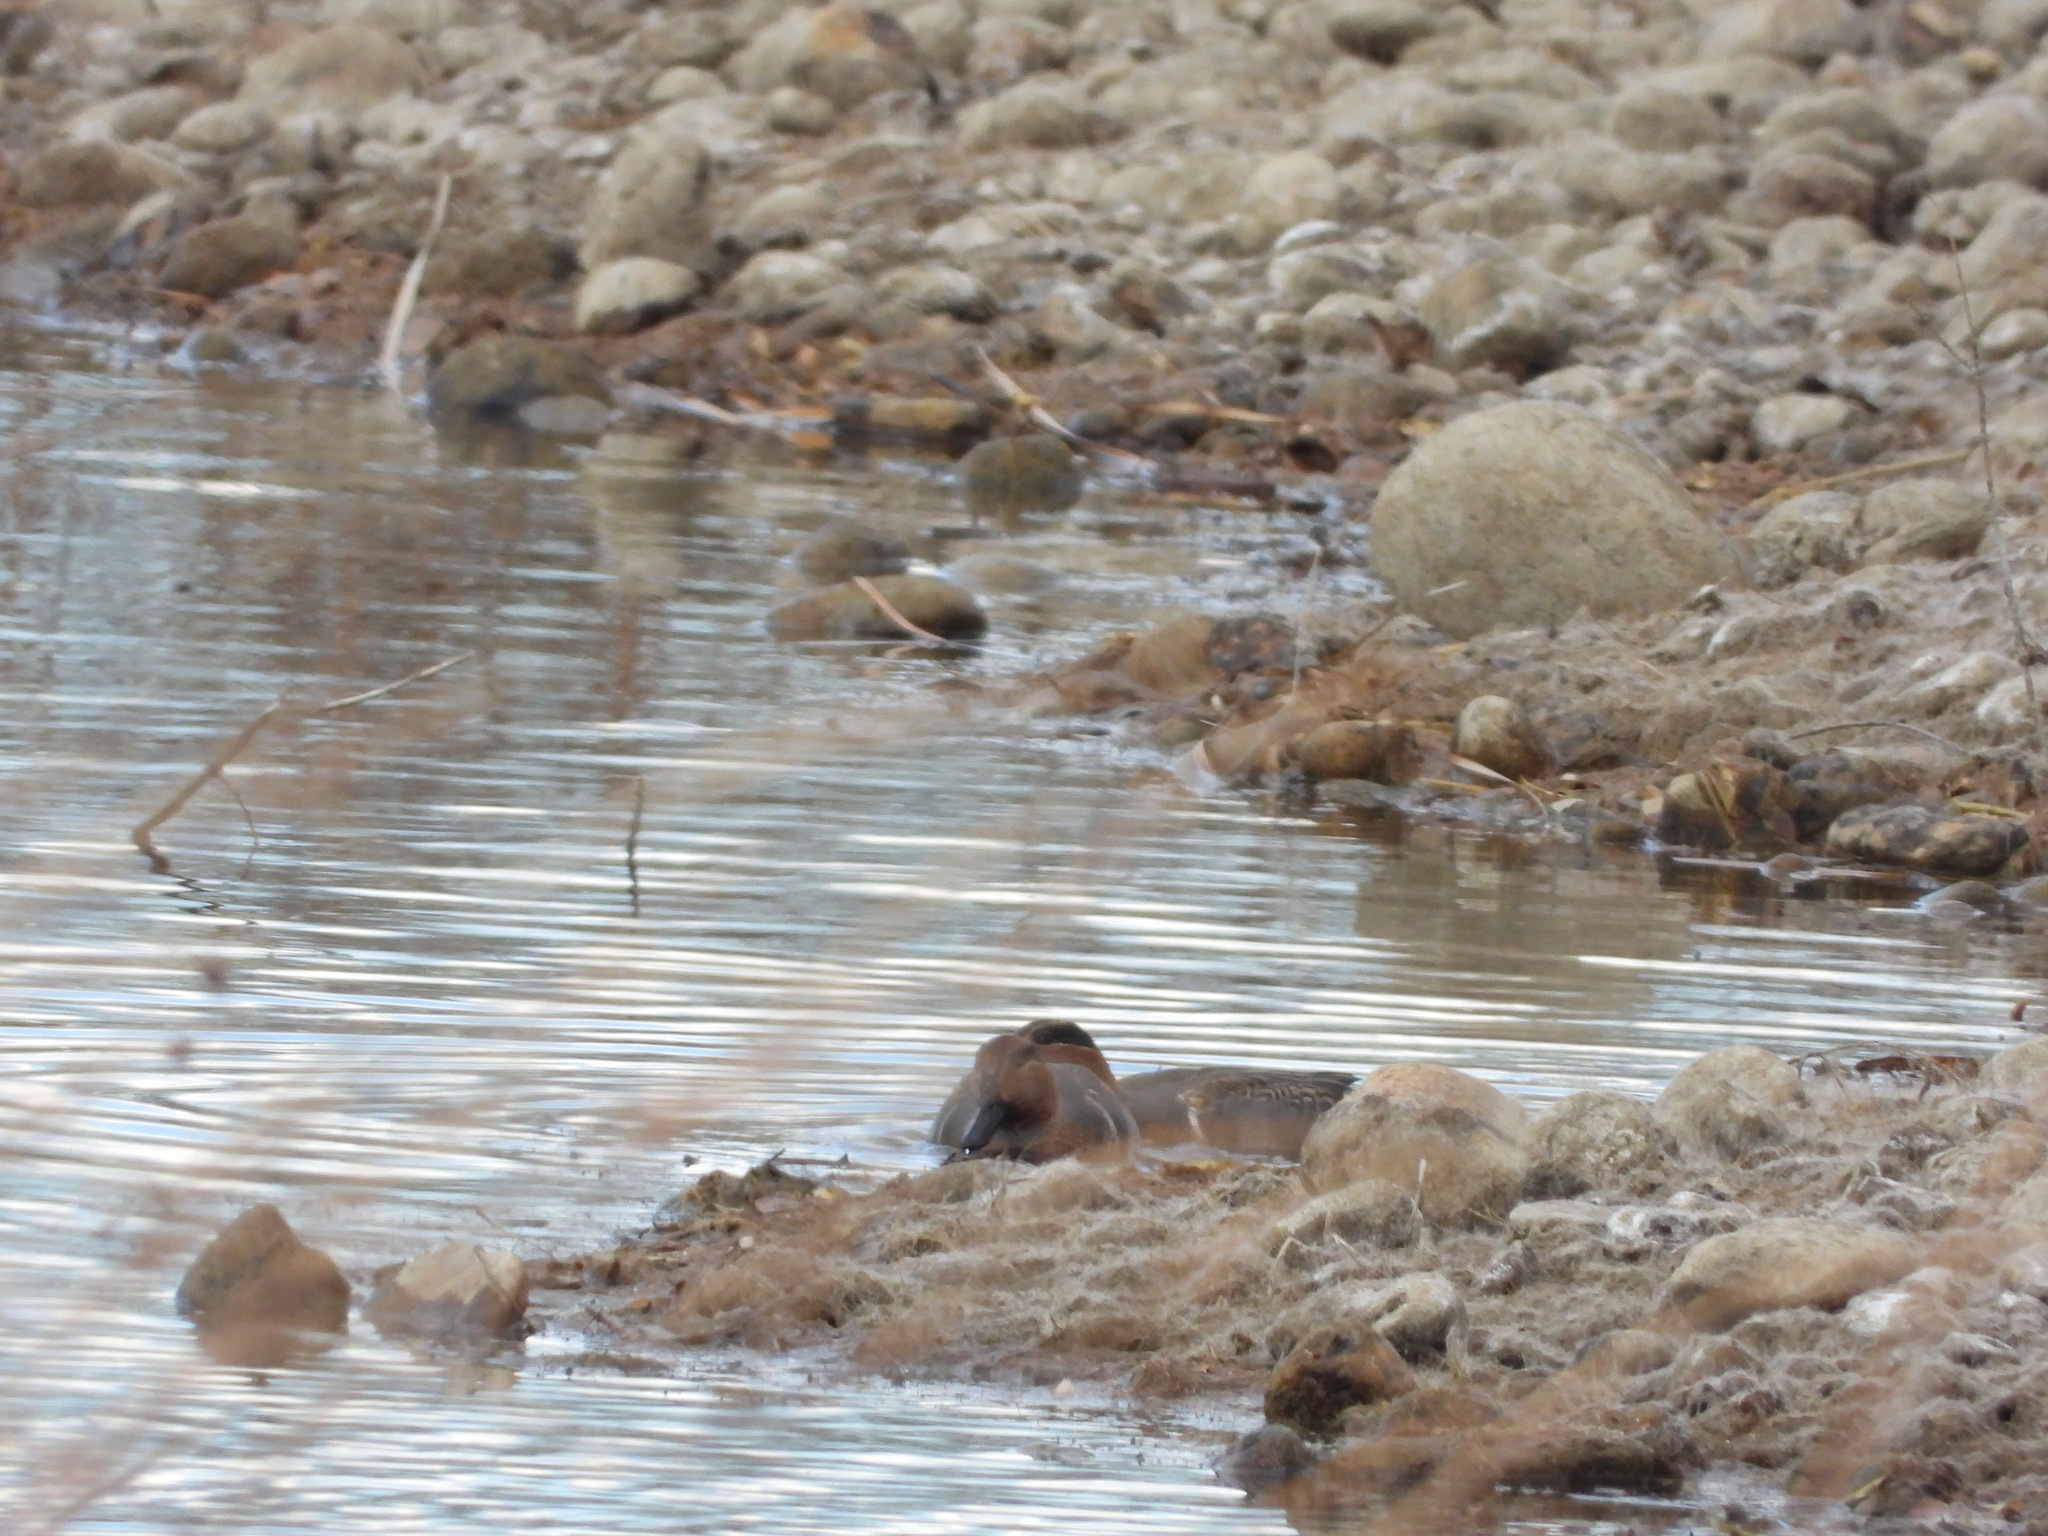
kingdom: Animalia
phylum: Chordata
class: Aves
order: Anseriformes
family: Anatidae
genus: Anas
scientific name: Anas crecca
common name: Eurasian teal
